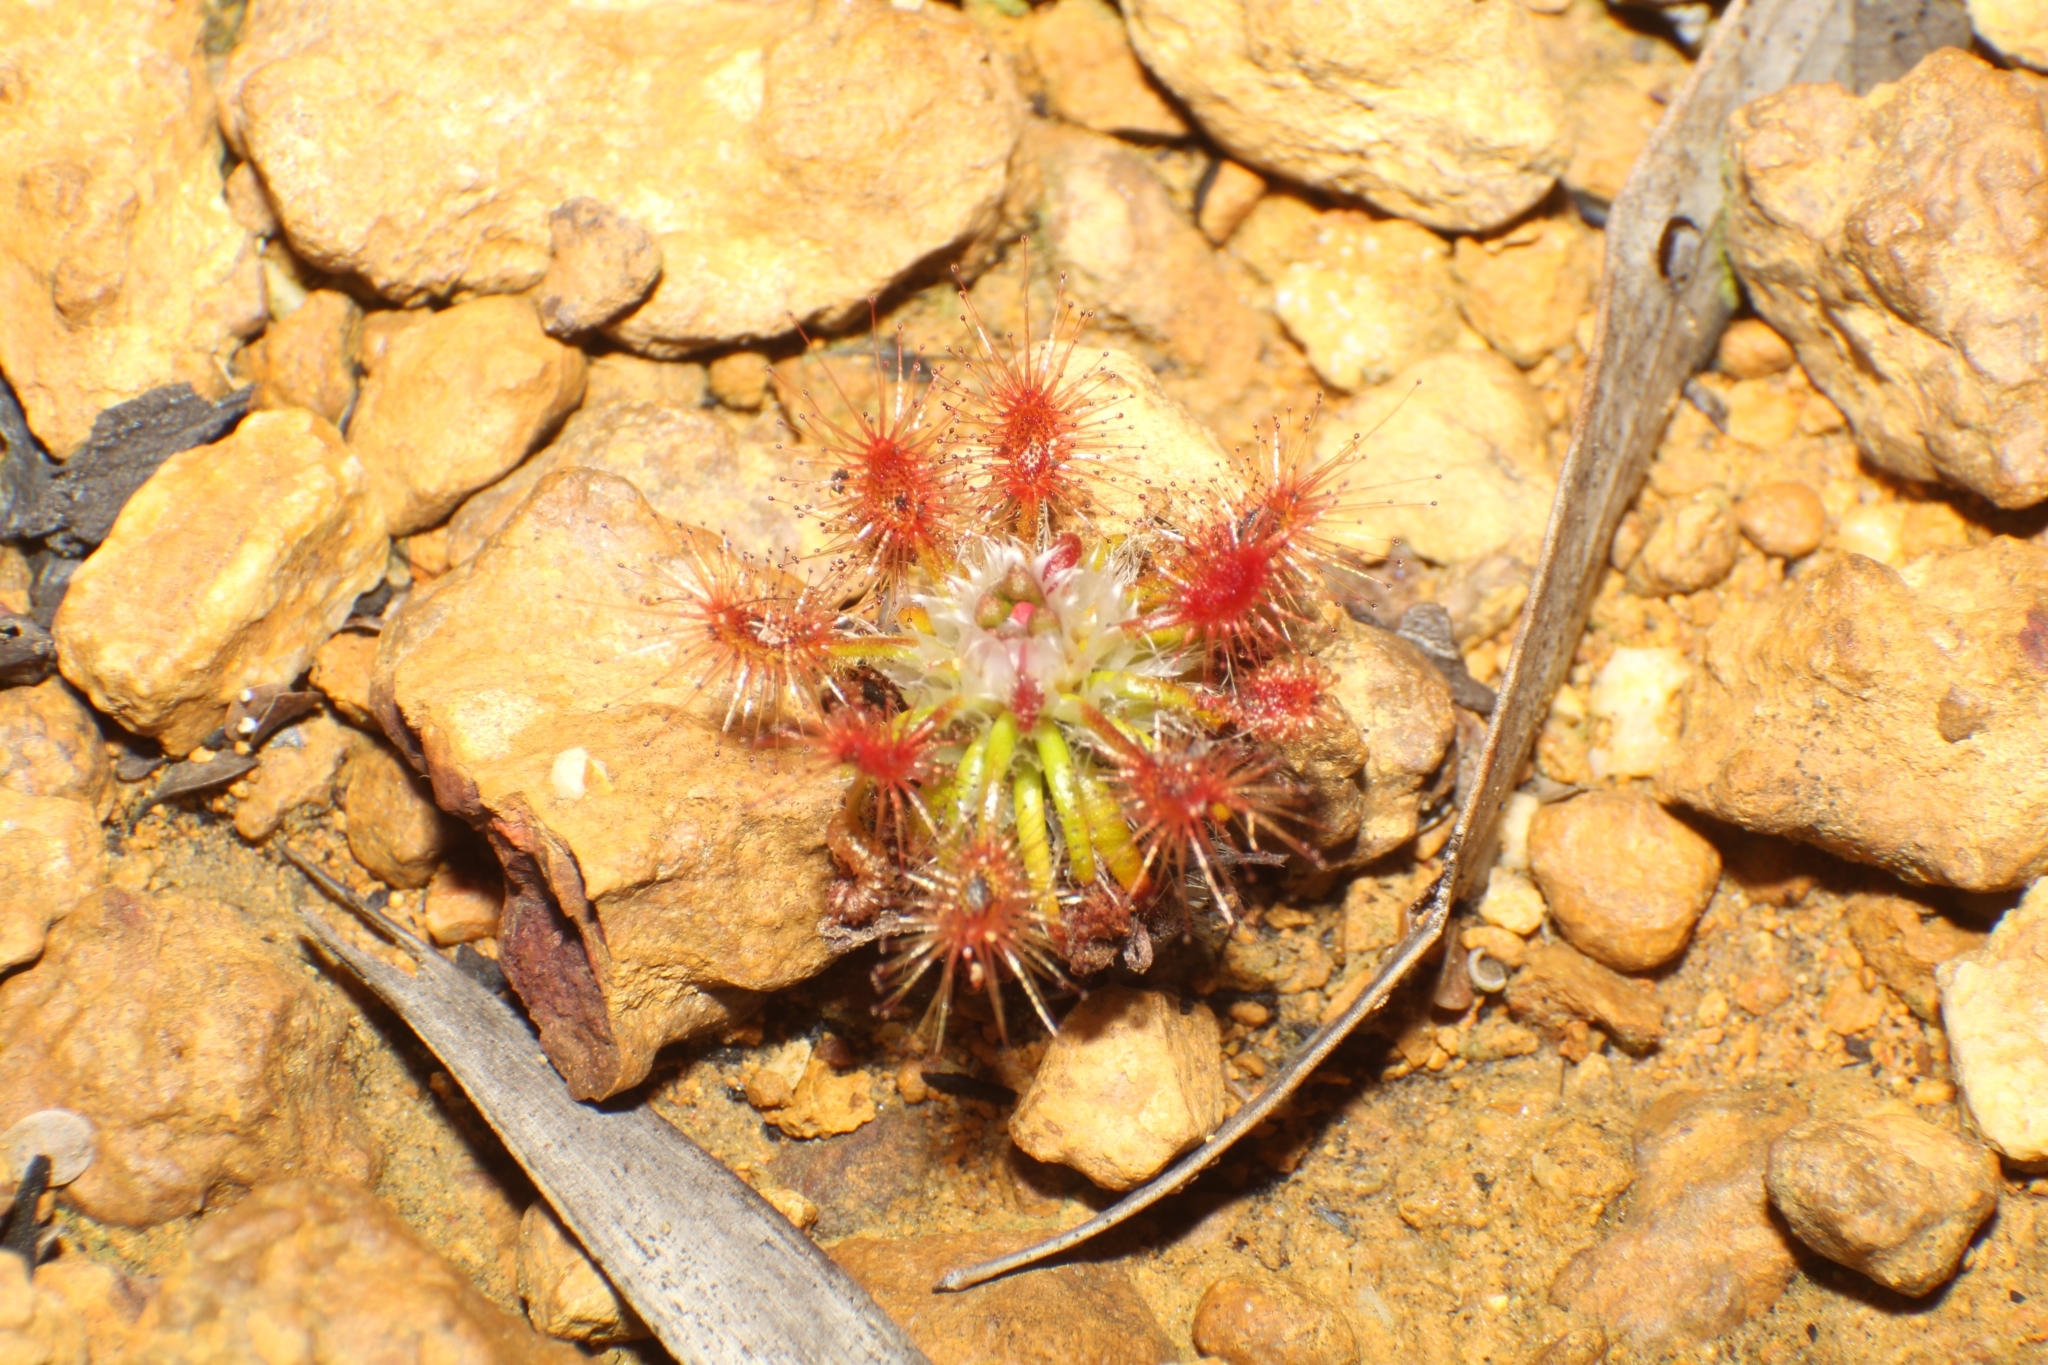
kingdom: Plantae
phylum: Tracheophyta
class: Magnoliopsida
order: Caryophyllales
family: Droseraceae
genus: Drosera
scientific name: Drosera gibsonii
